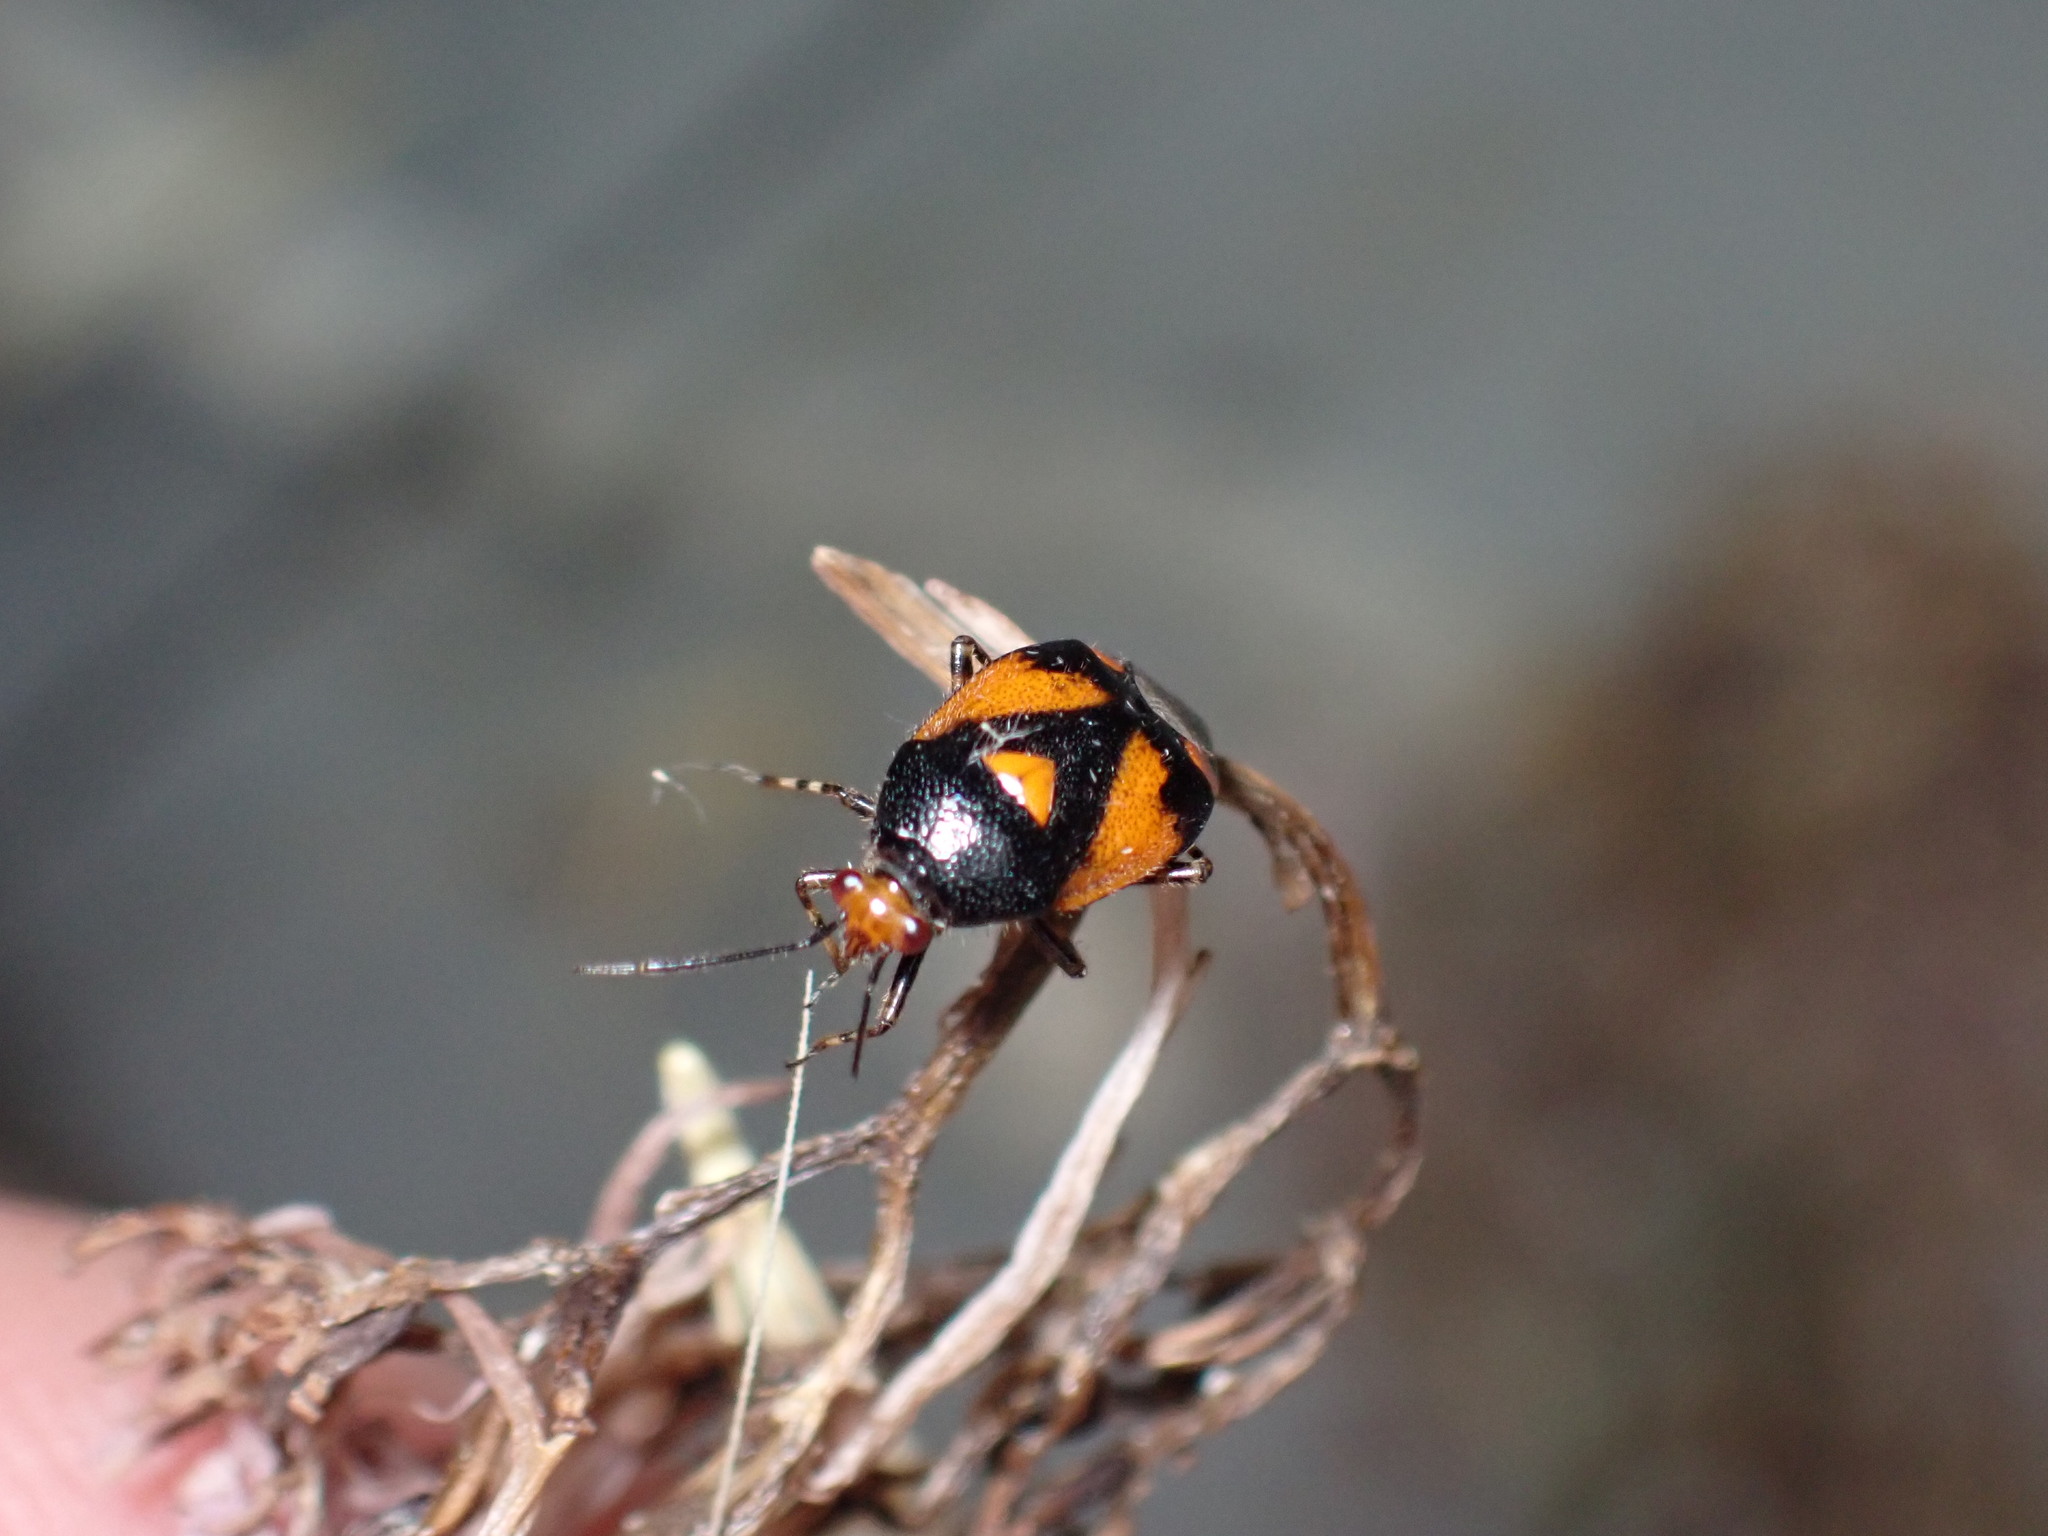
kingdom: Animalia
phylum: Arthropoda
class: Insecta
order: Hemiptera
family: Miridae
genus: Deraeocoris
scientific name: Deraeocoris schach
